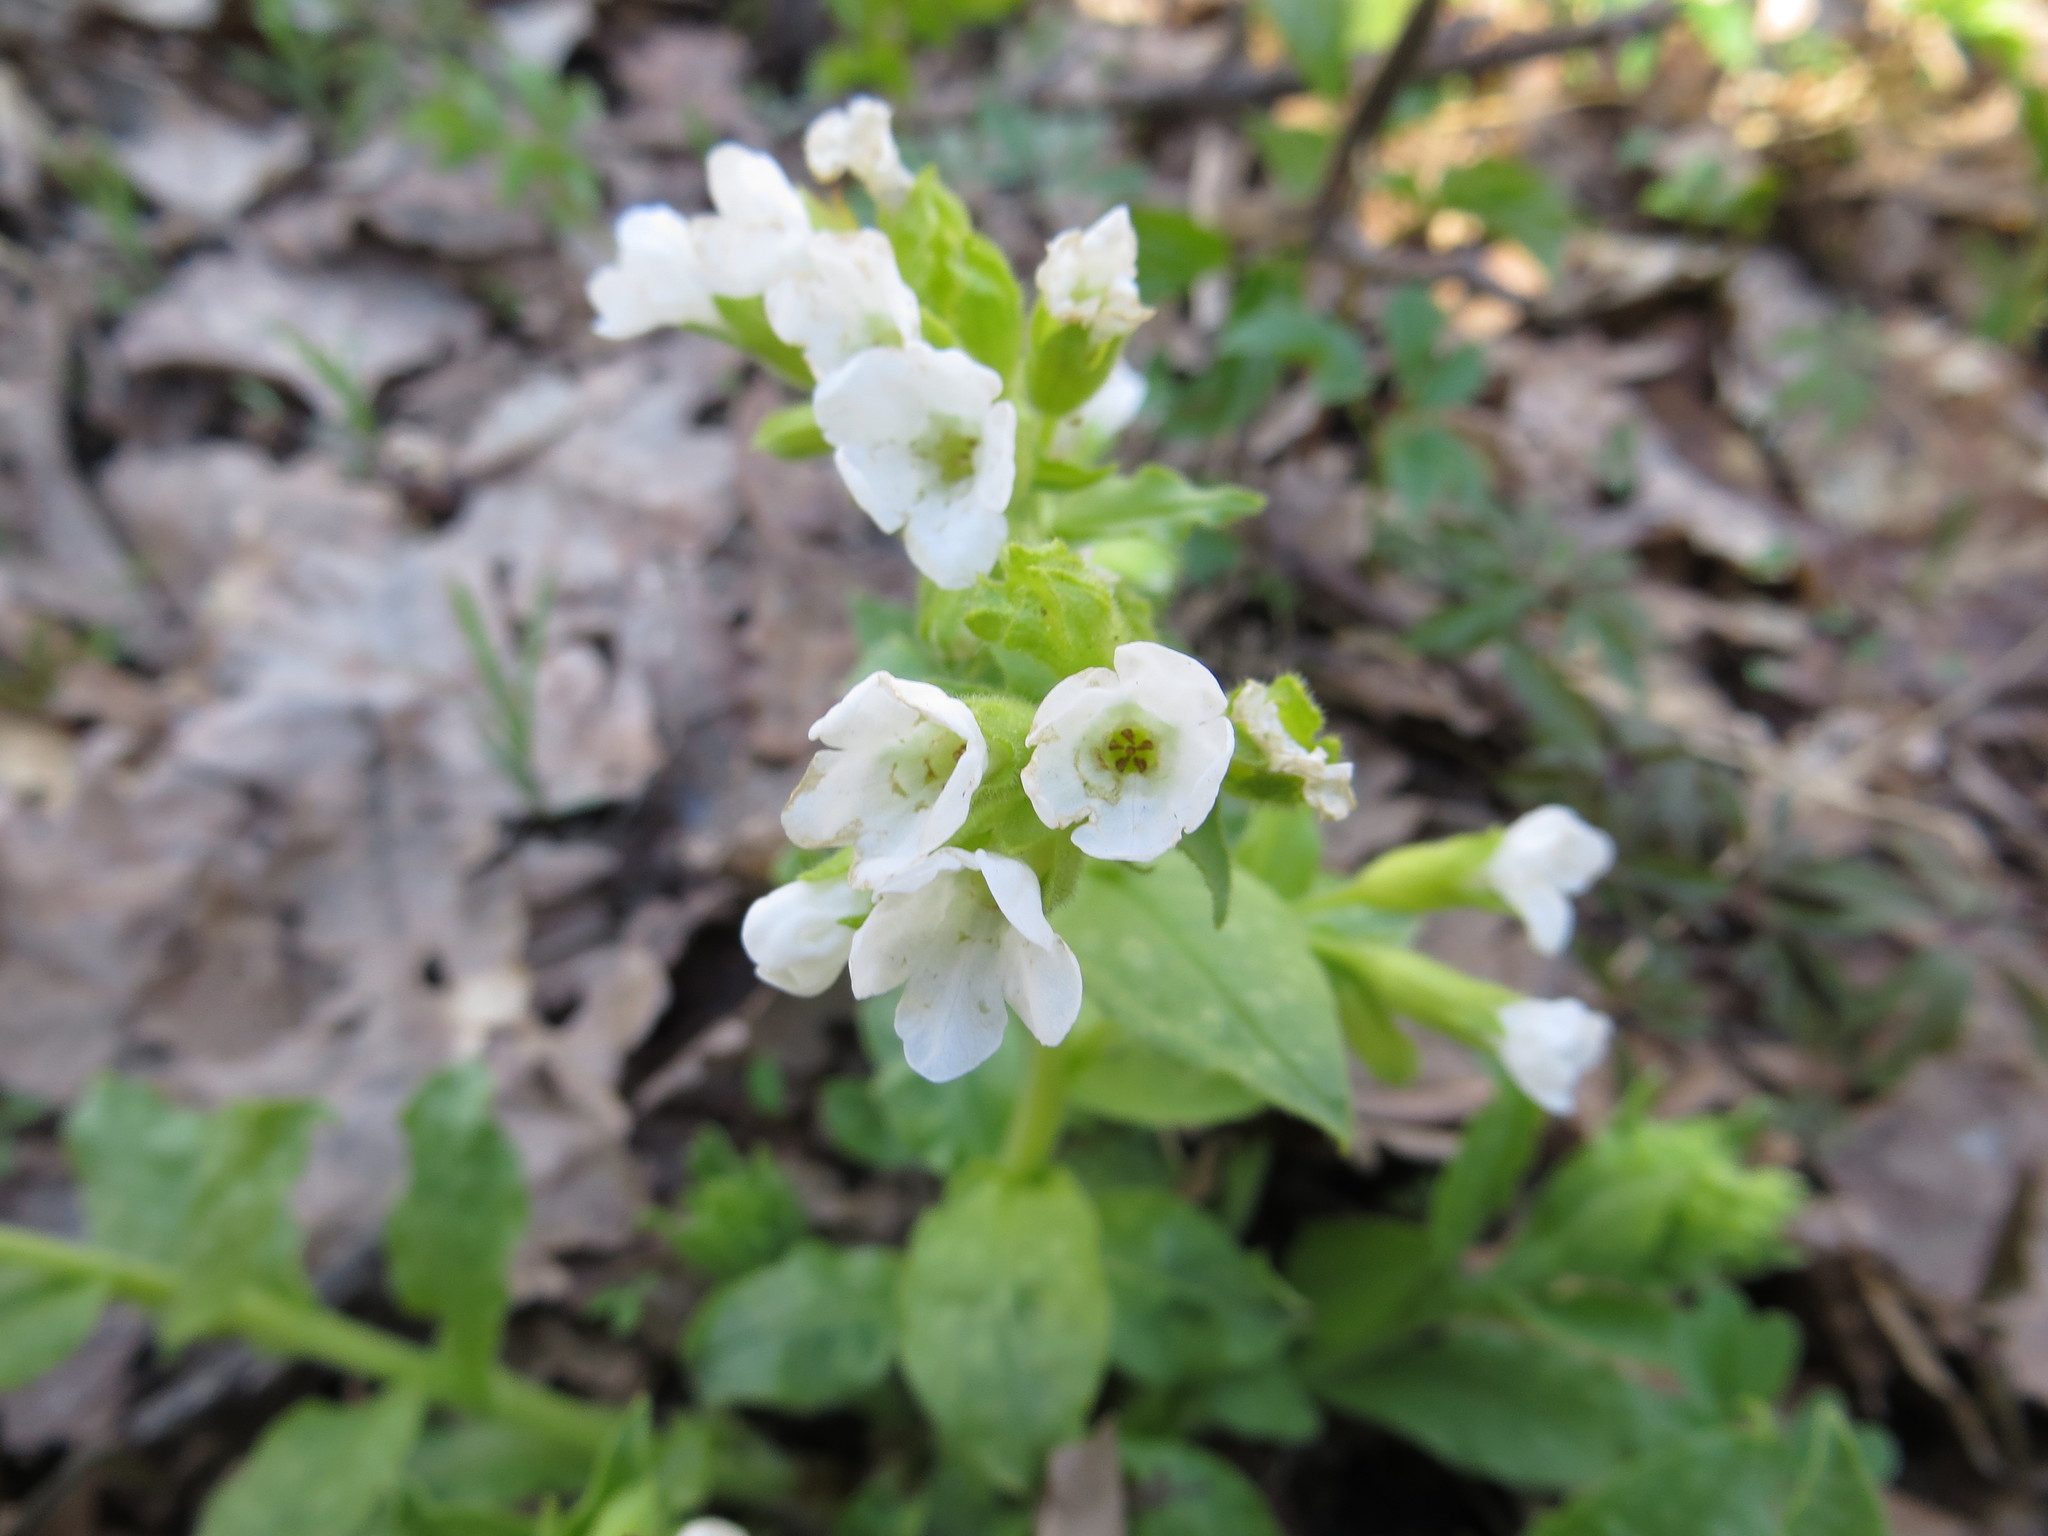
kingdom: Plantae
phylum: Tracheophyta
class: Magnoliopsida
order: Boraginales
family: Boraginaceae
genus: Pulmonaria
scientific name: Pulmonaria obscura
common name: Suffolk lungwort
